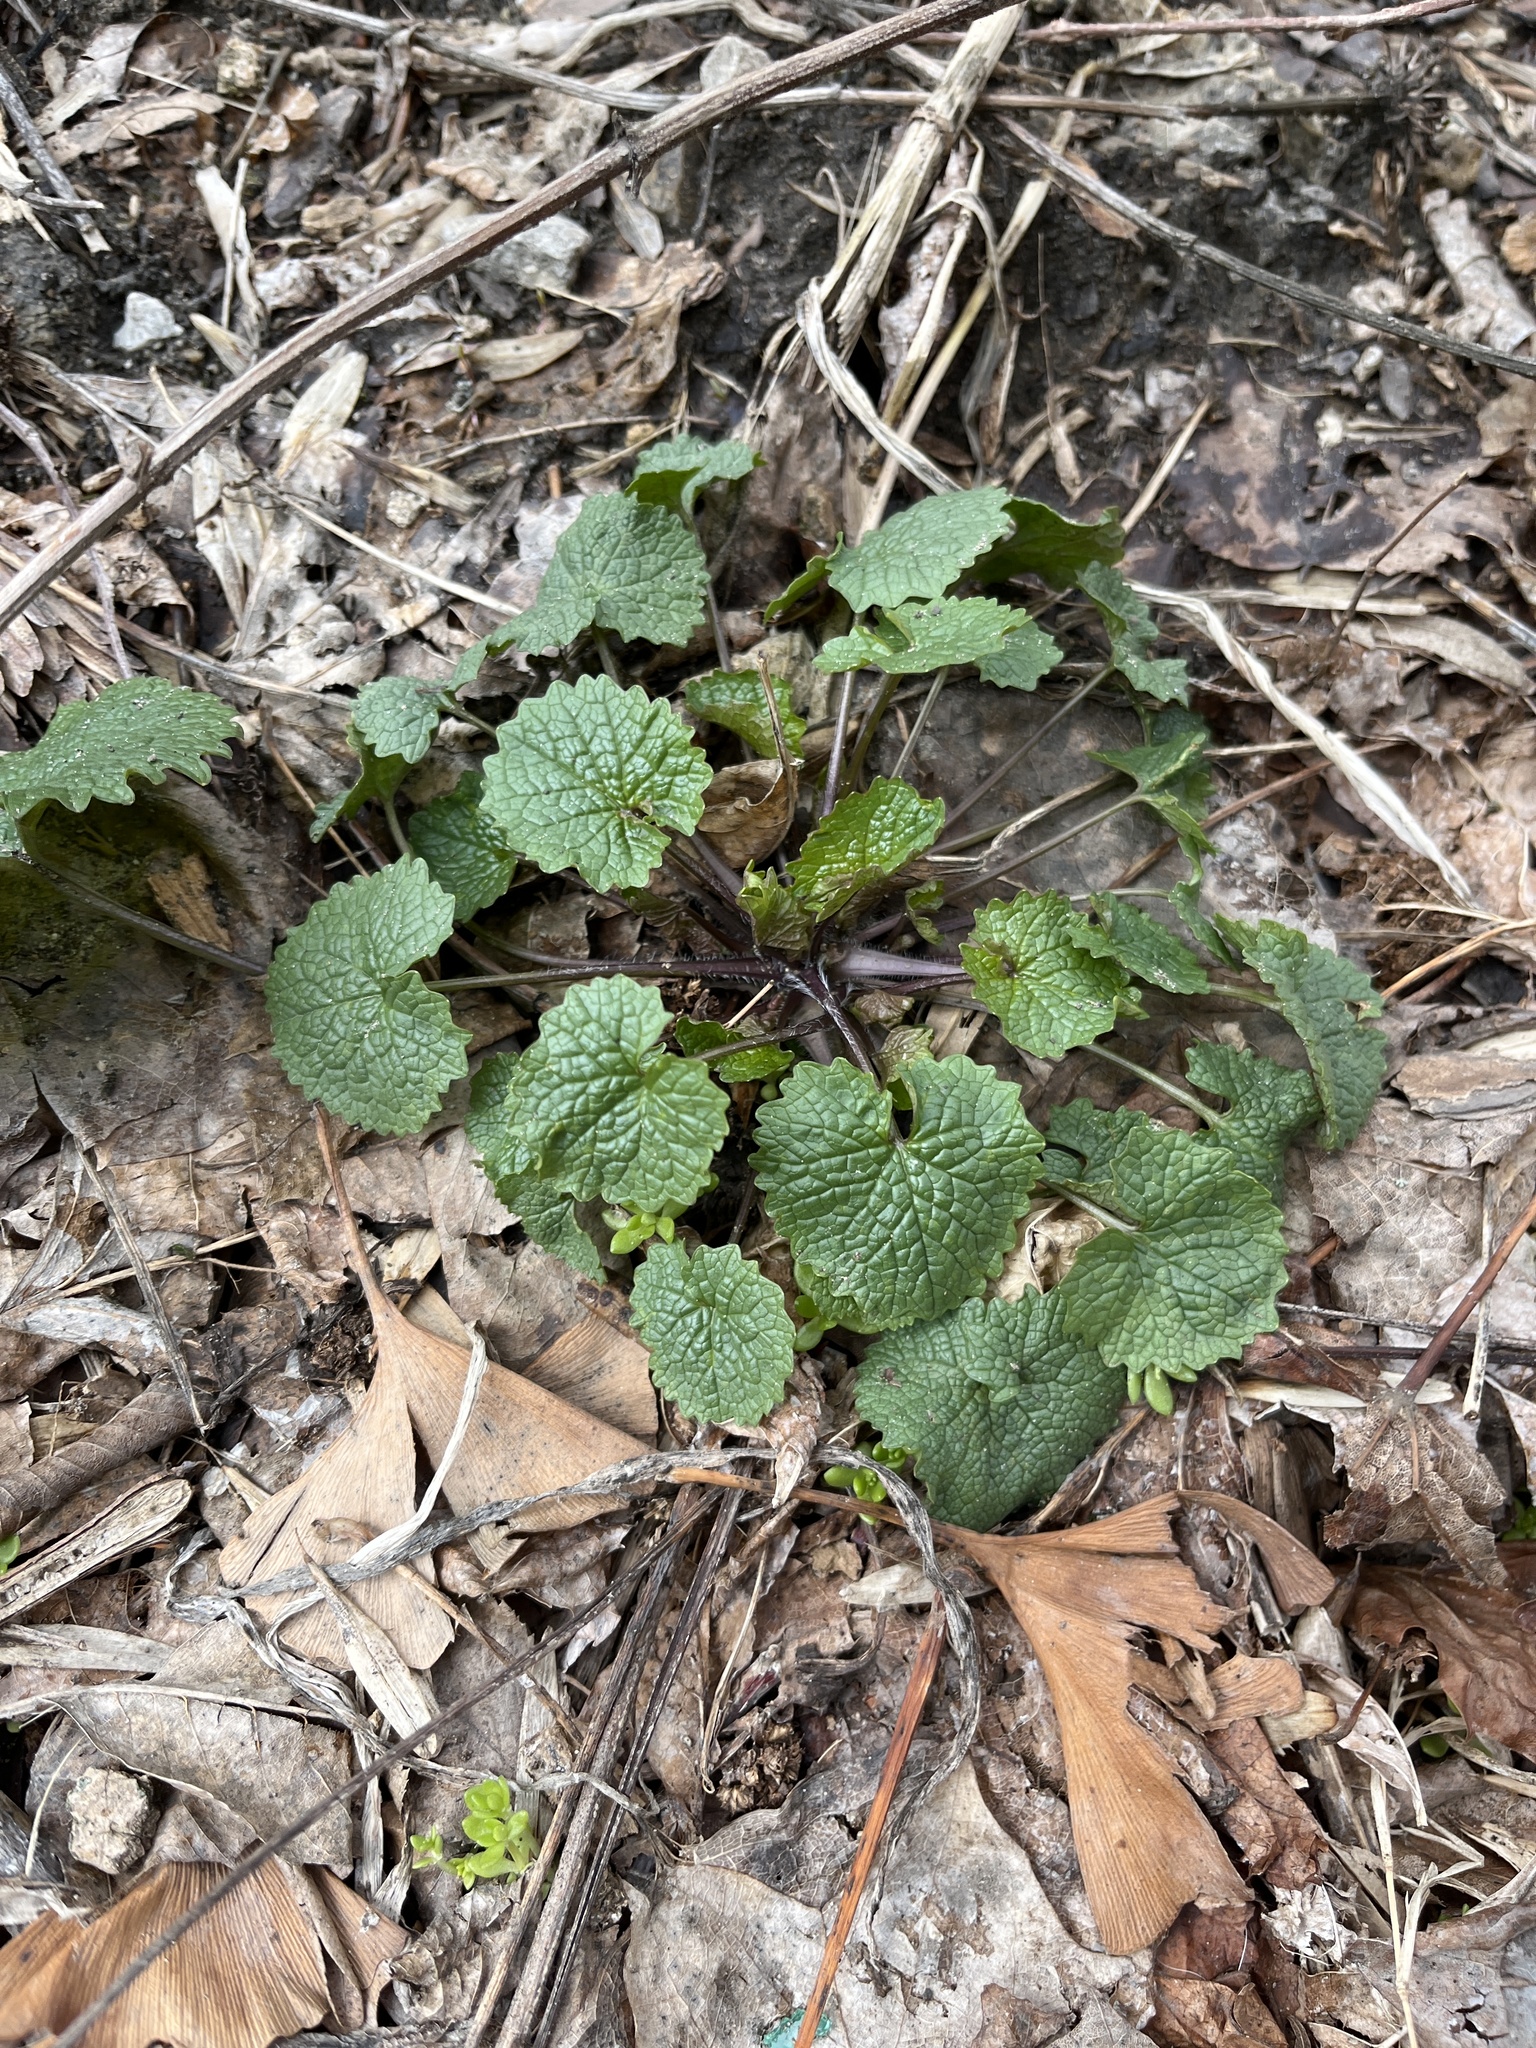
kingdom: Plantae
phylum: Tracheophyta
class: Magnoliopsida
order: Brassicales
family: Brassicaceae
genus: Alliaria
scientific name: Alliaria petiolata
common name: Garlic mustard
